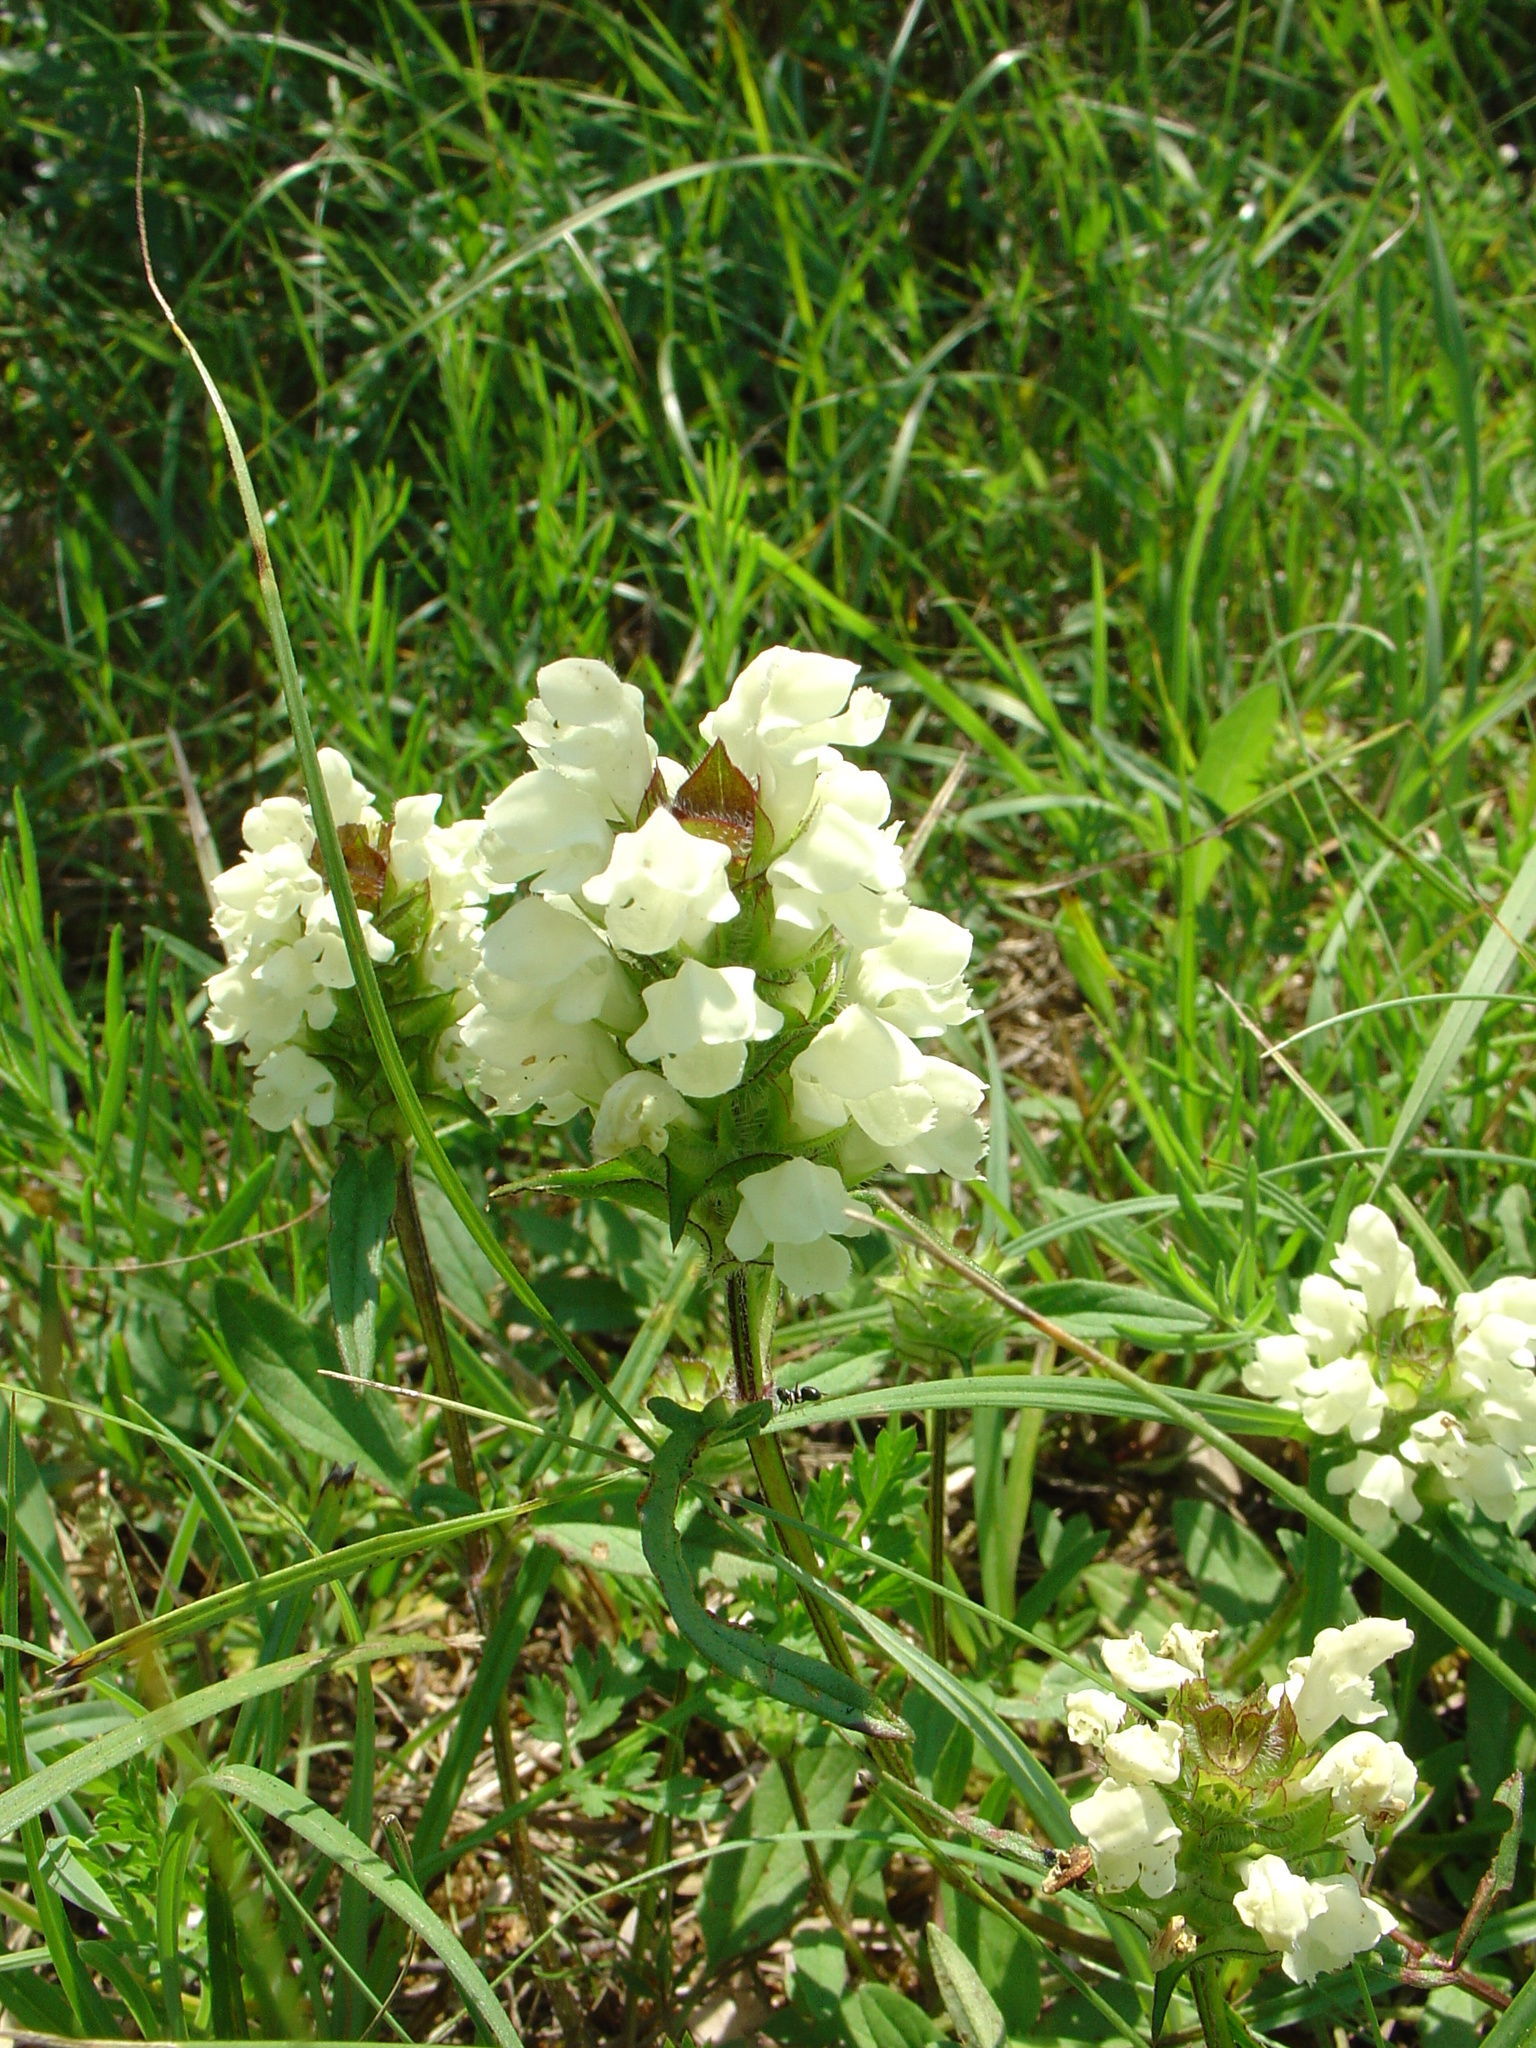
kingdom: Plantae
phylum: Tracheophyta
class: Magnoliopsida
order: Lamiales
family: Lamiaceae
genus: Prunella
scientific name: Prunella laciniata
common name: Cut-leaved selfheal
